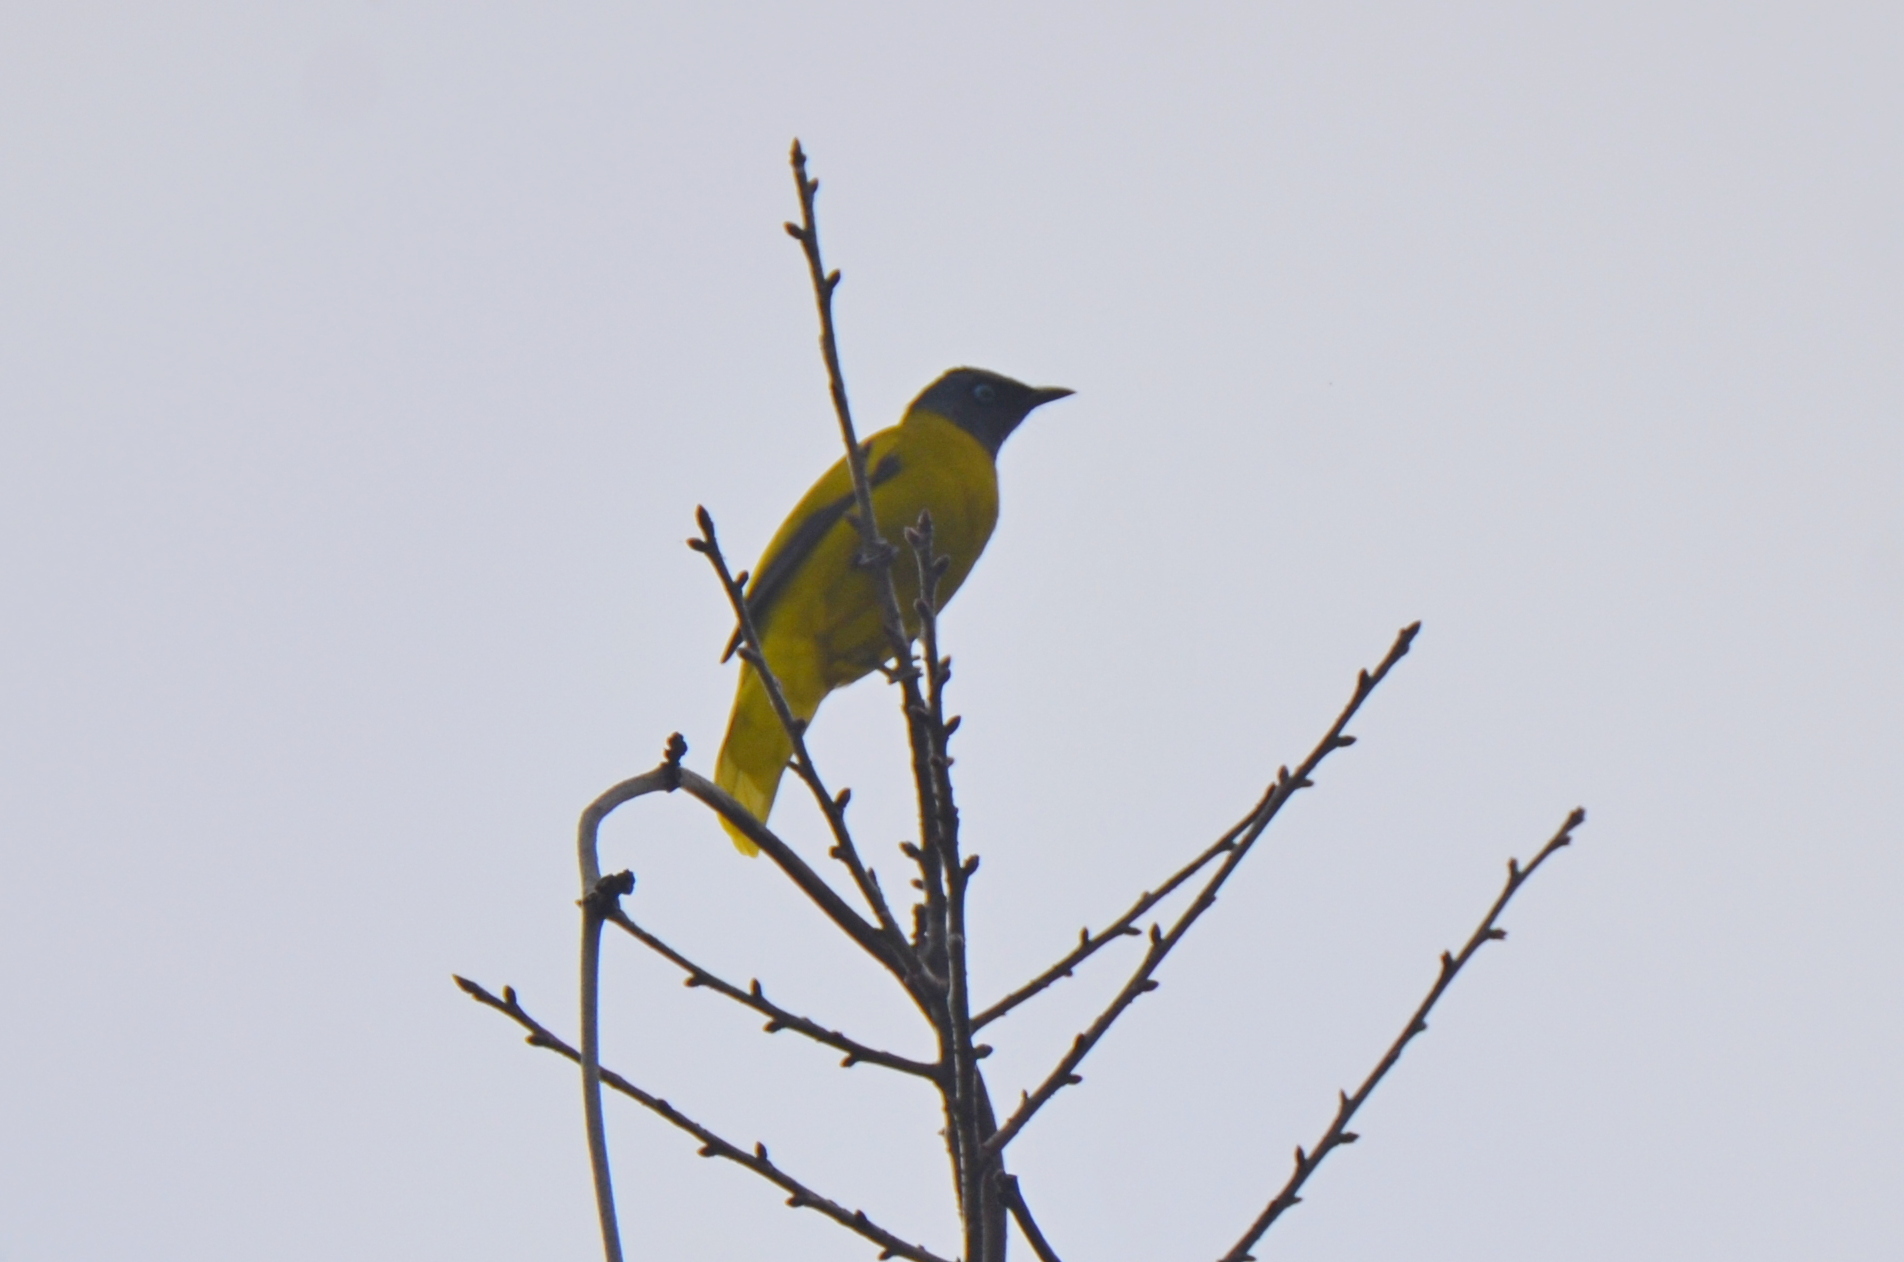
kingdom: Animalia
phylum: Chordata
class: Aves
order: Passeriformes
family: Pycnonotidae
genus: Microtarsus
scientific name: Microtarsus
